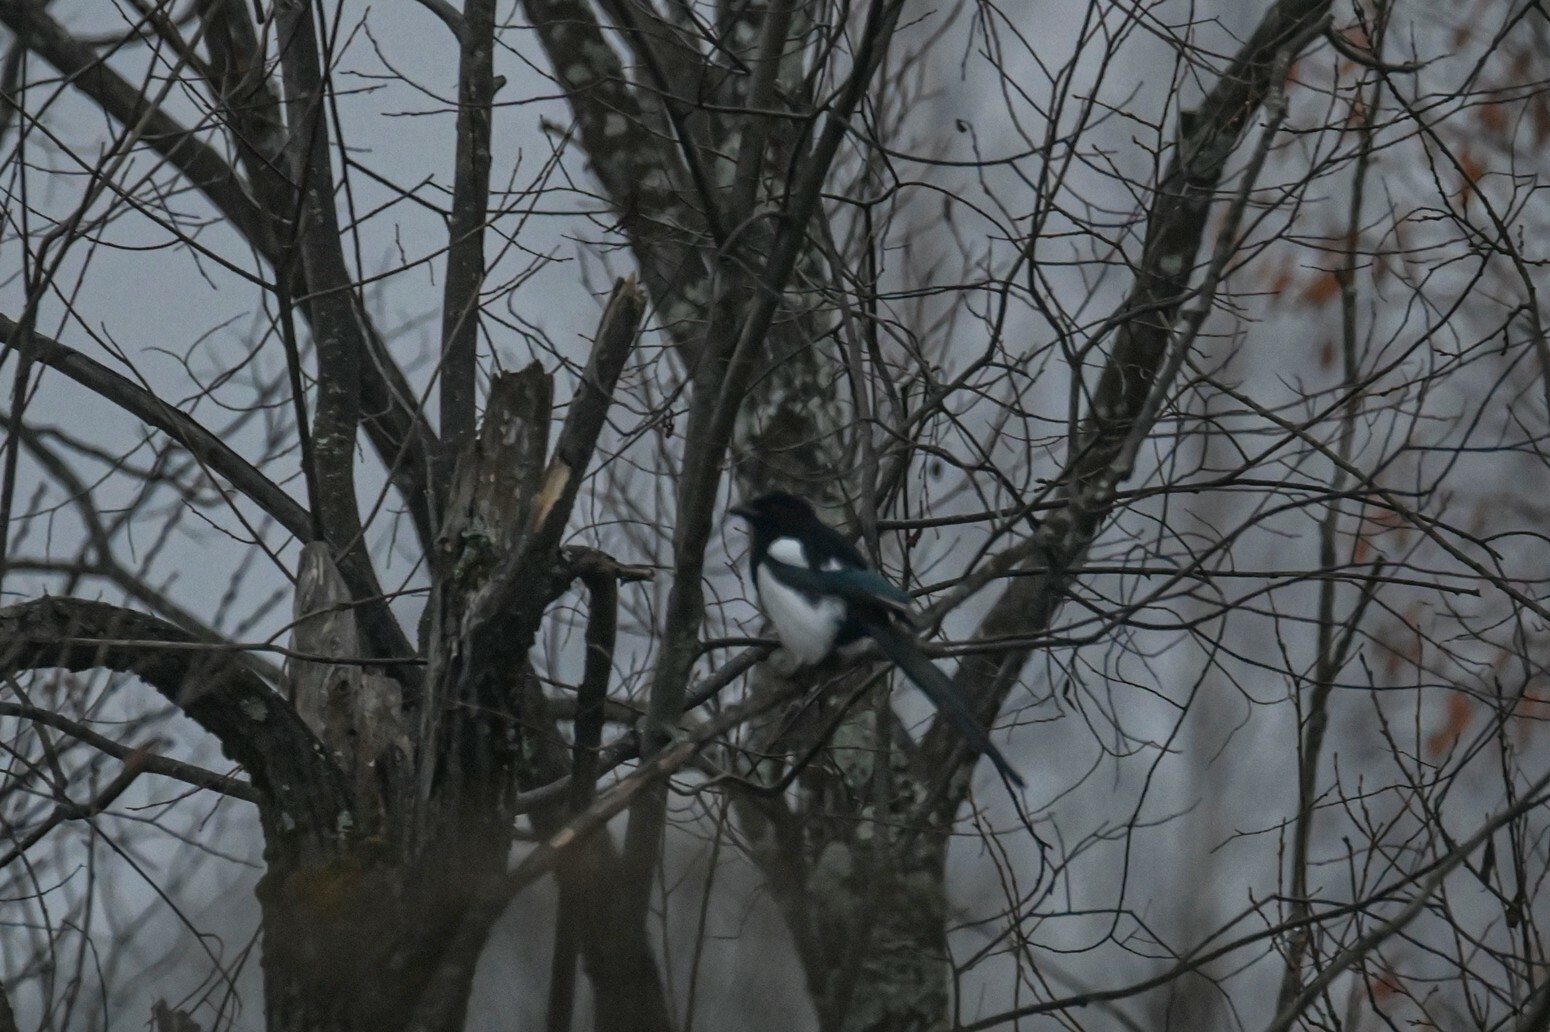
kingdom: Animalia
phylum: Chordata
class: Aves
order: Passeriformes
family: Corvidae
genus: Pica
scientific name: Pica pica
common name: Eurasian magpie
